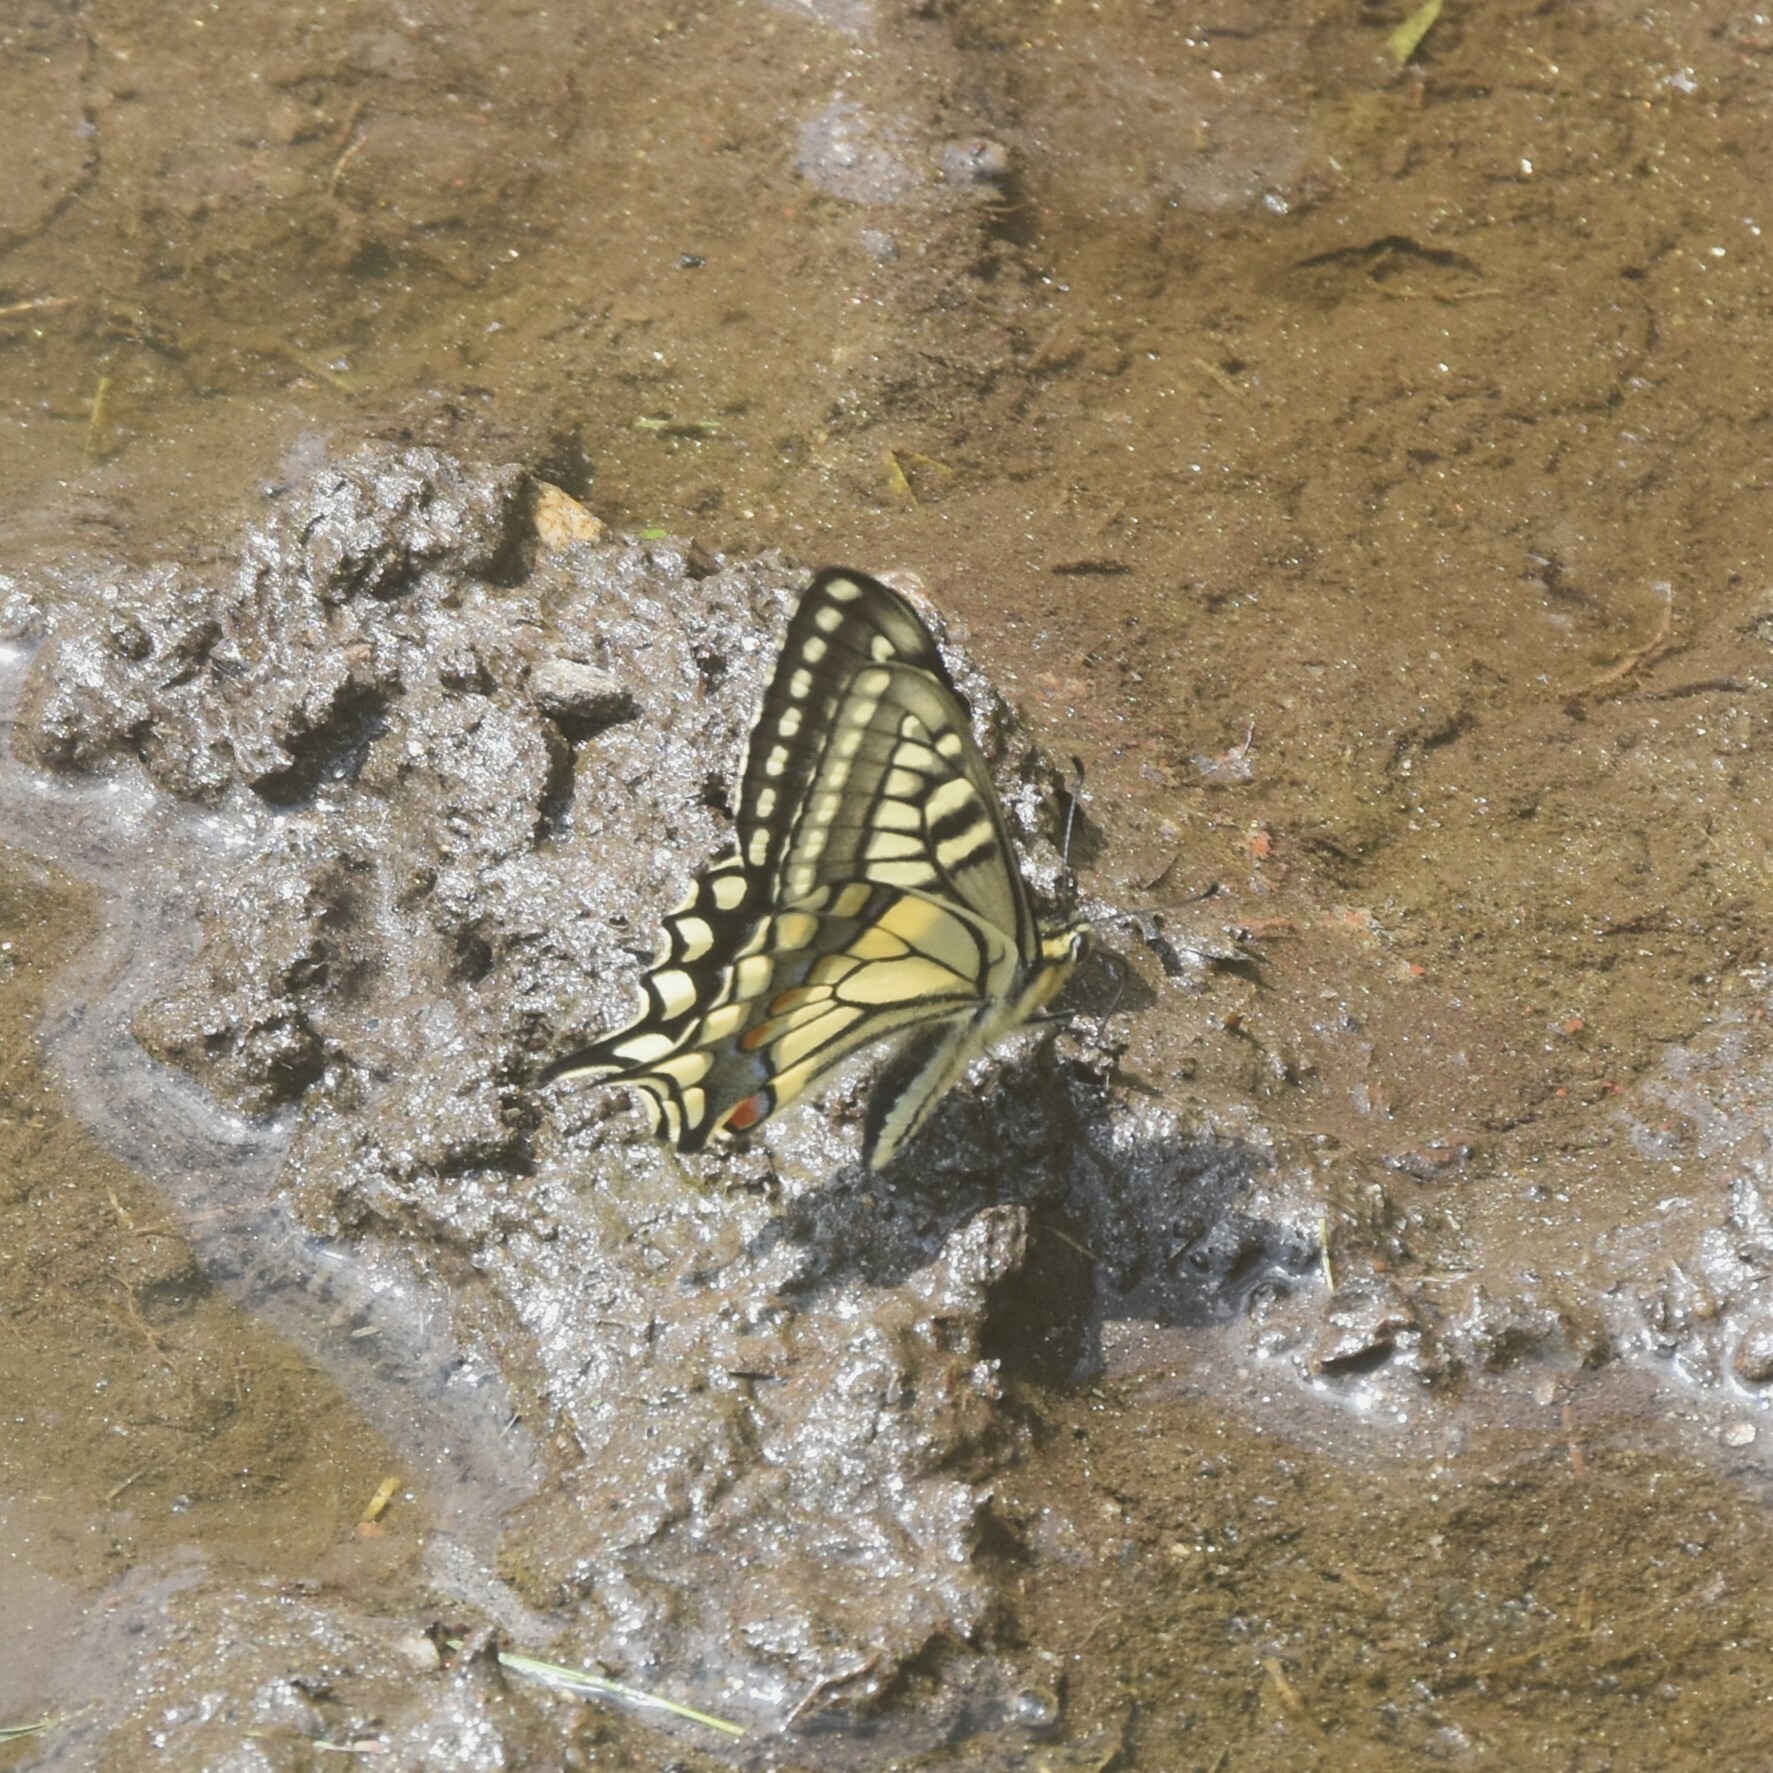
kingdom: Animalia
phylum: Arthropoda
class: Insecta
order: Lepidoptera
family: Papilionidae
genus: Papilio
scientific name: Papilio machaon
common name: Swallowtail
